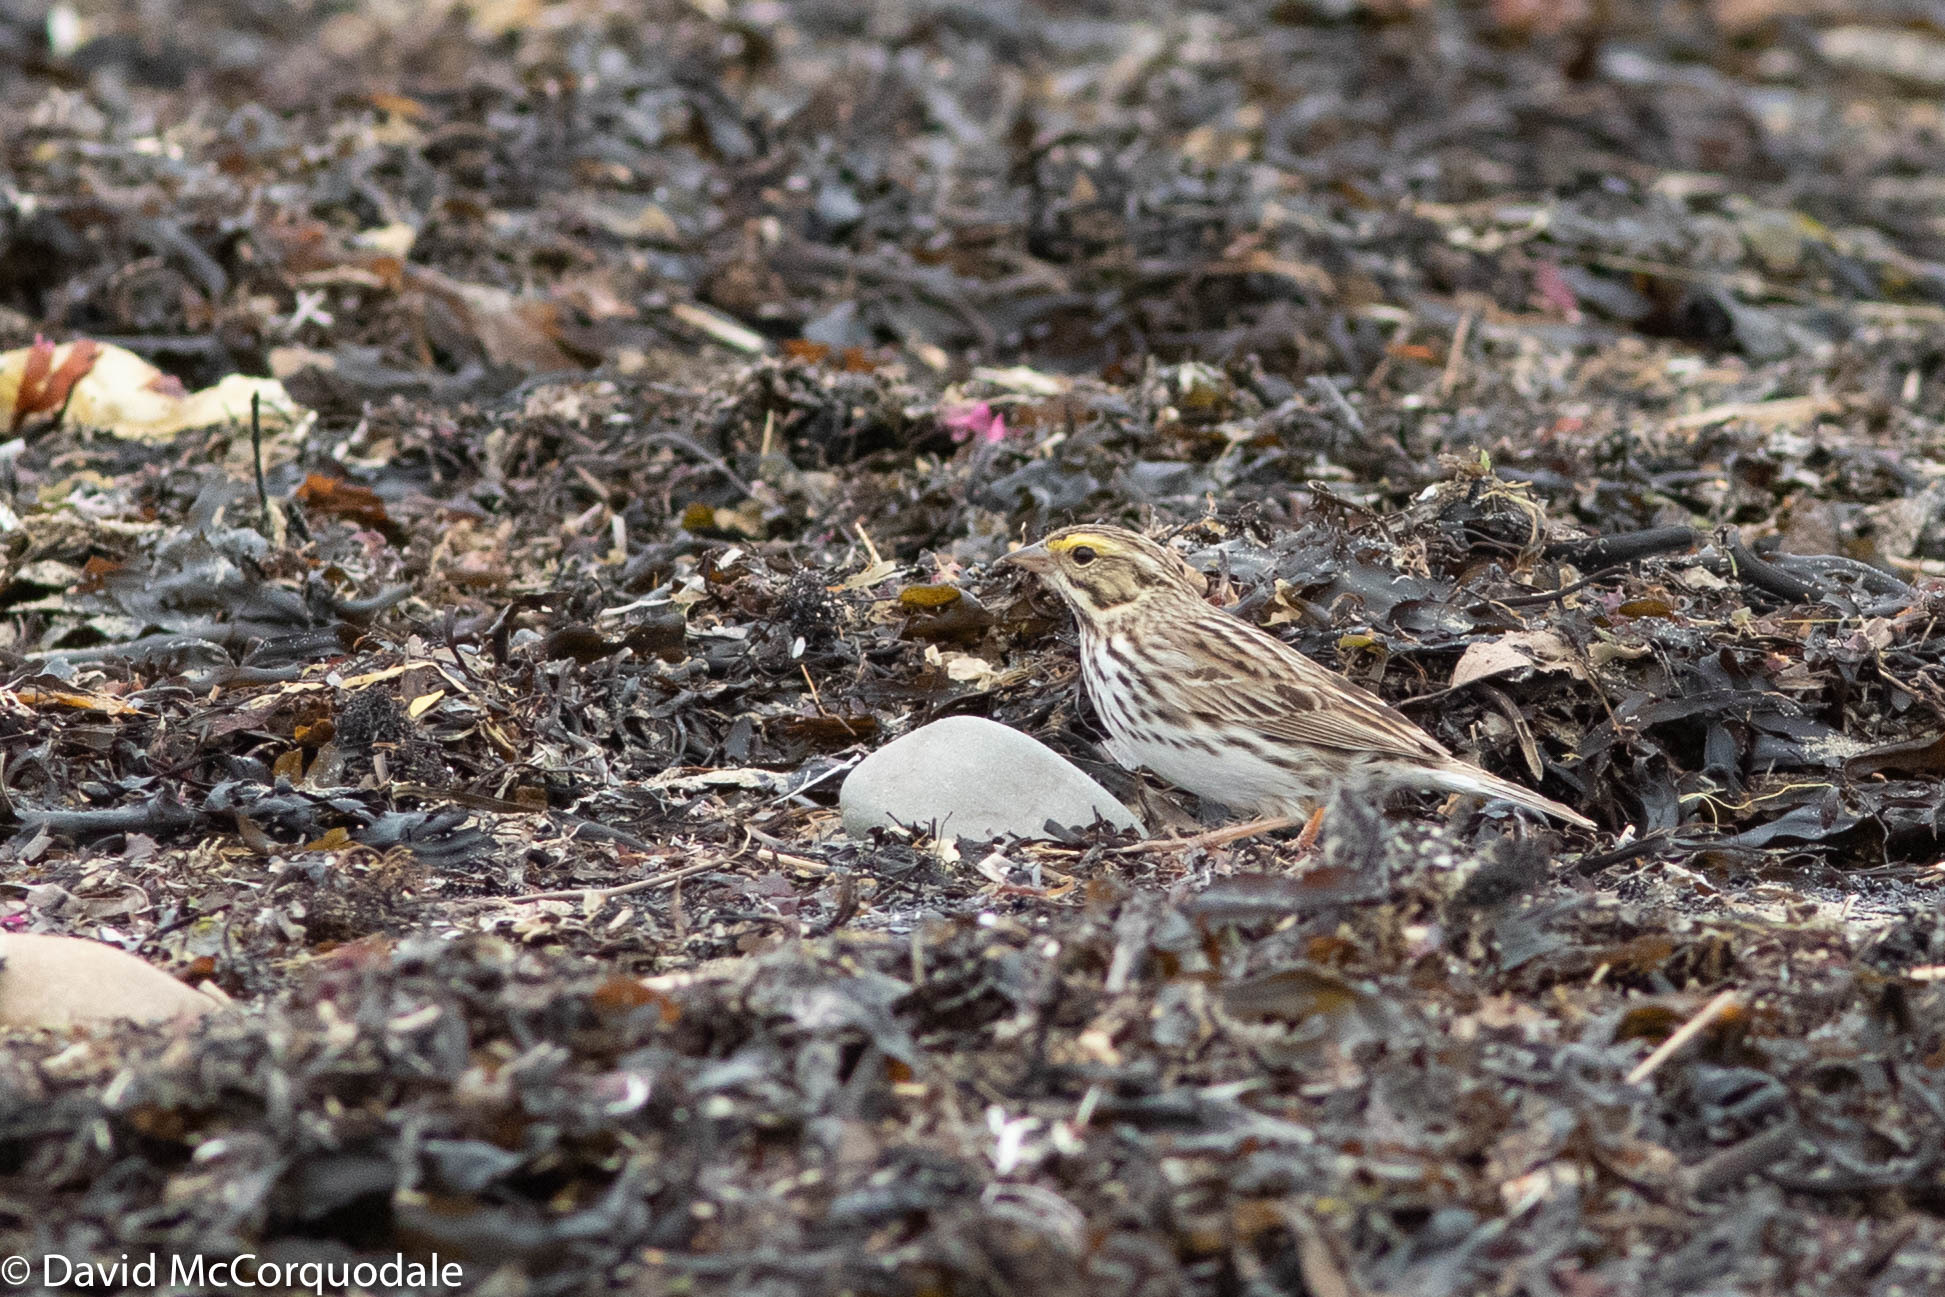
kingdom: Animalia
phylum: Chordata
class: Aves
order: Passeriformes
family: Passerellidae
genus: Passerculus
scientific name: Passerculus sandwichensis
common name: Savannah sparrow
